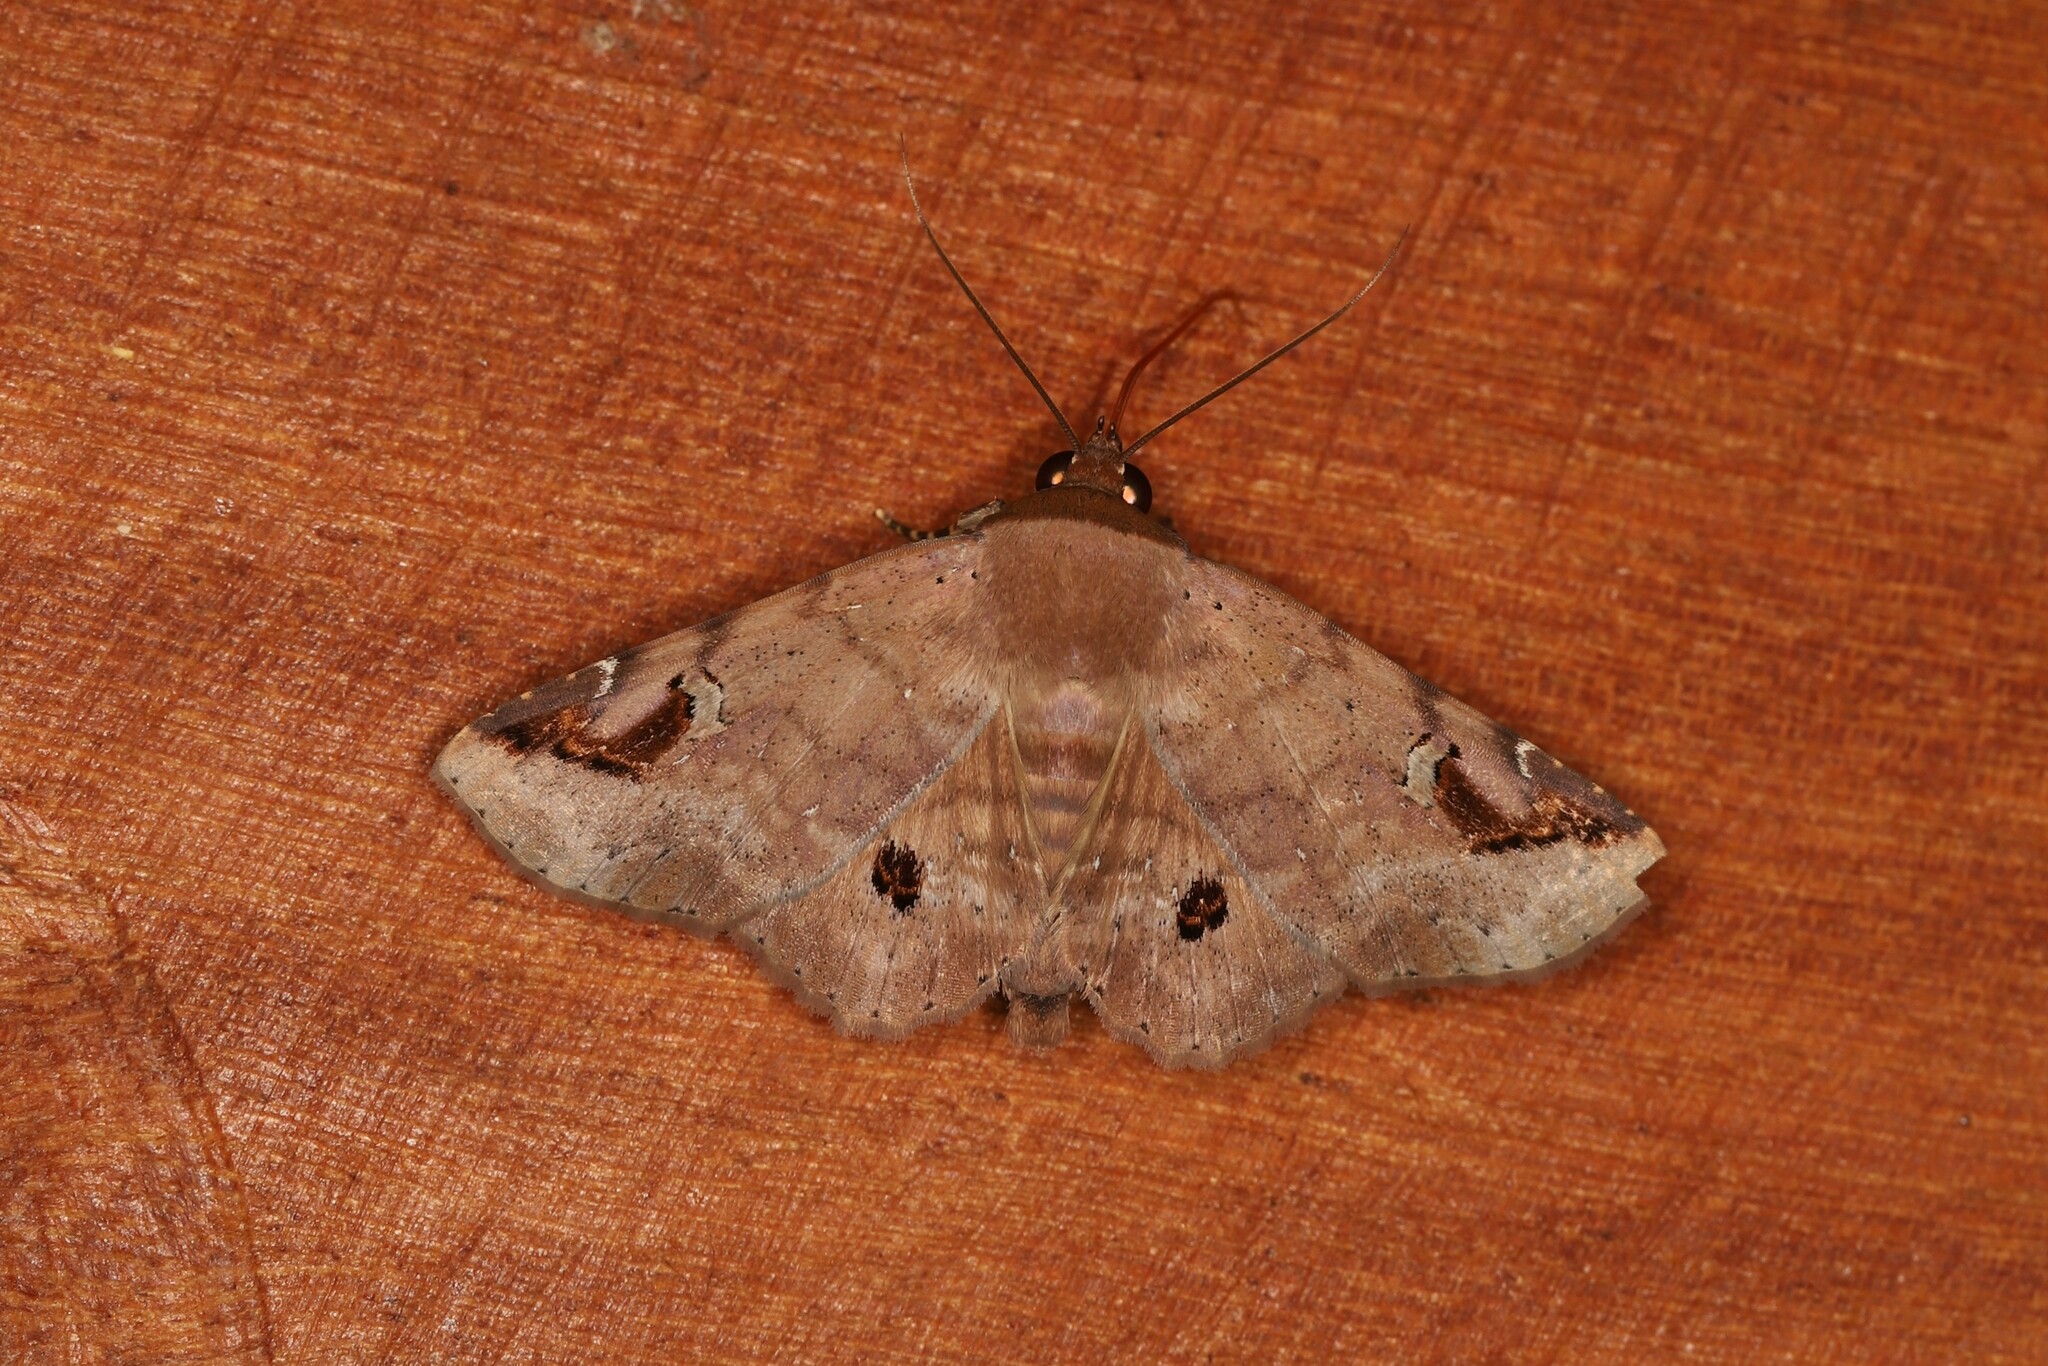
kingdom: Animalia
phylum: Arthropoda
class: Insecta
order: Lepidoptera
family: Erebidae
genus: Massala
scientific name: Massala abdara
